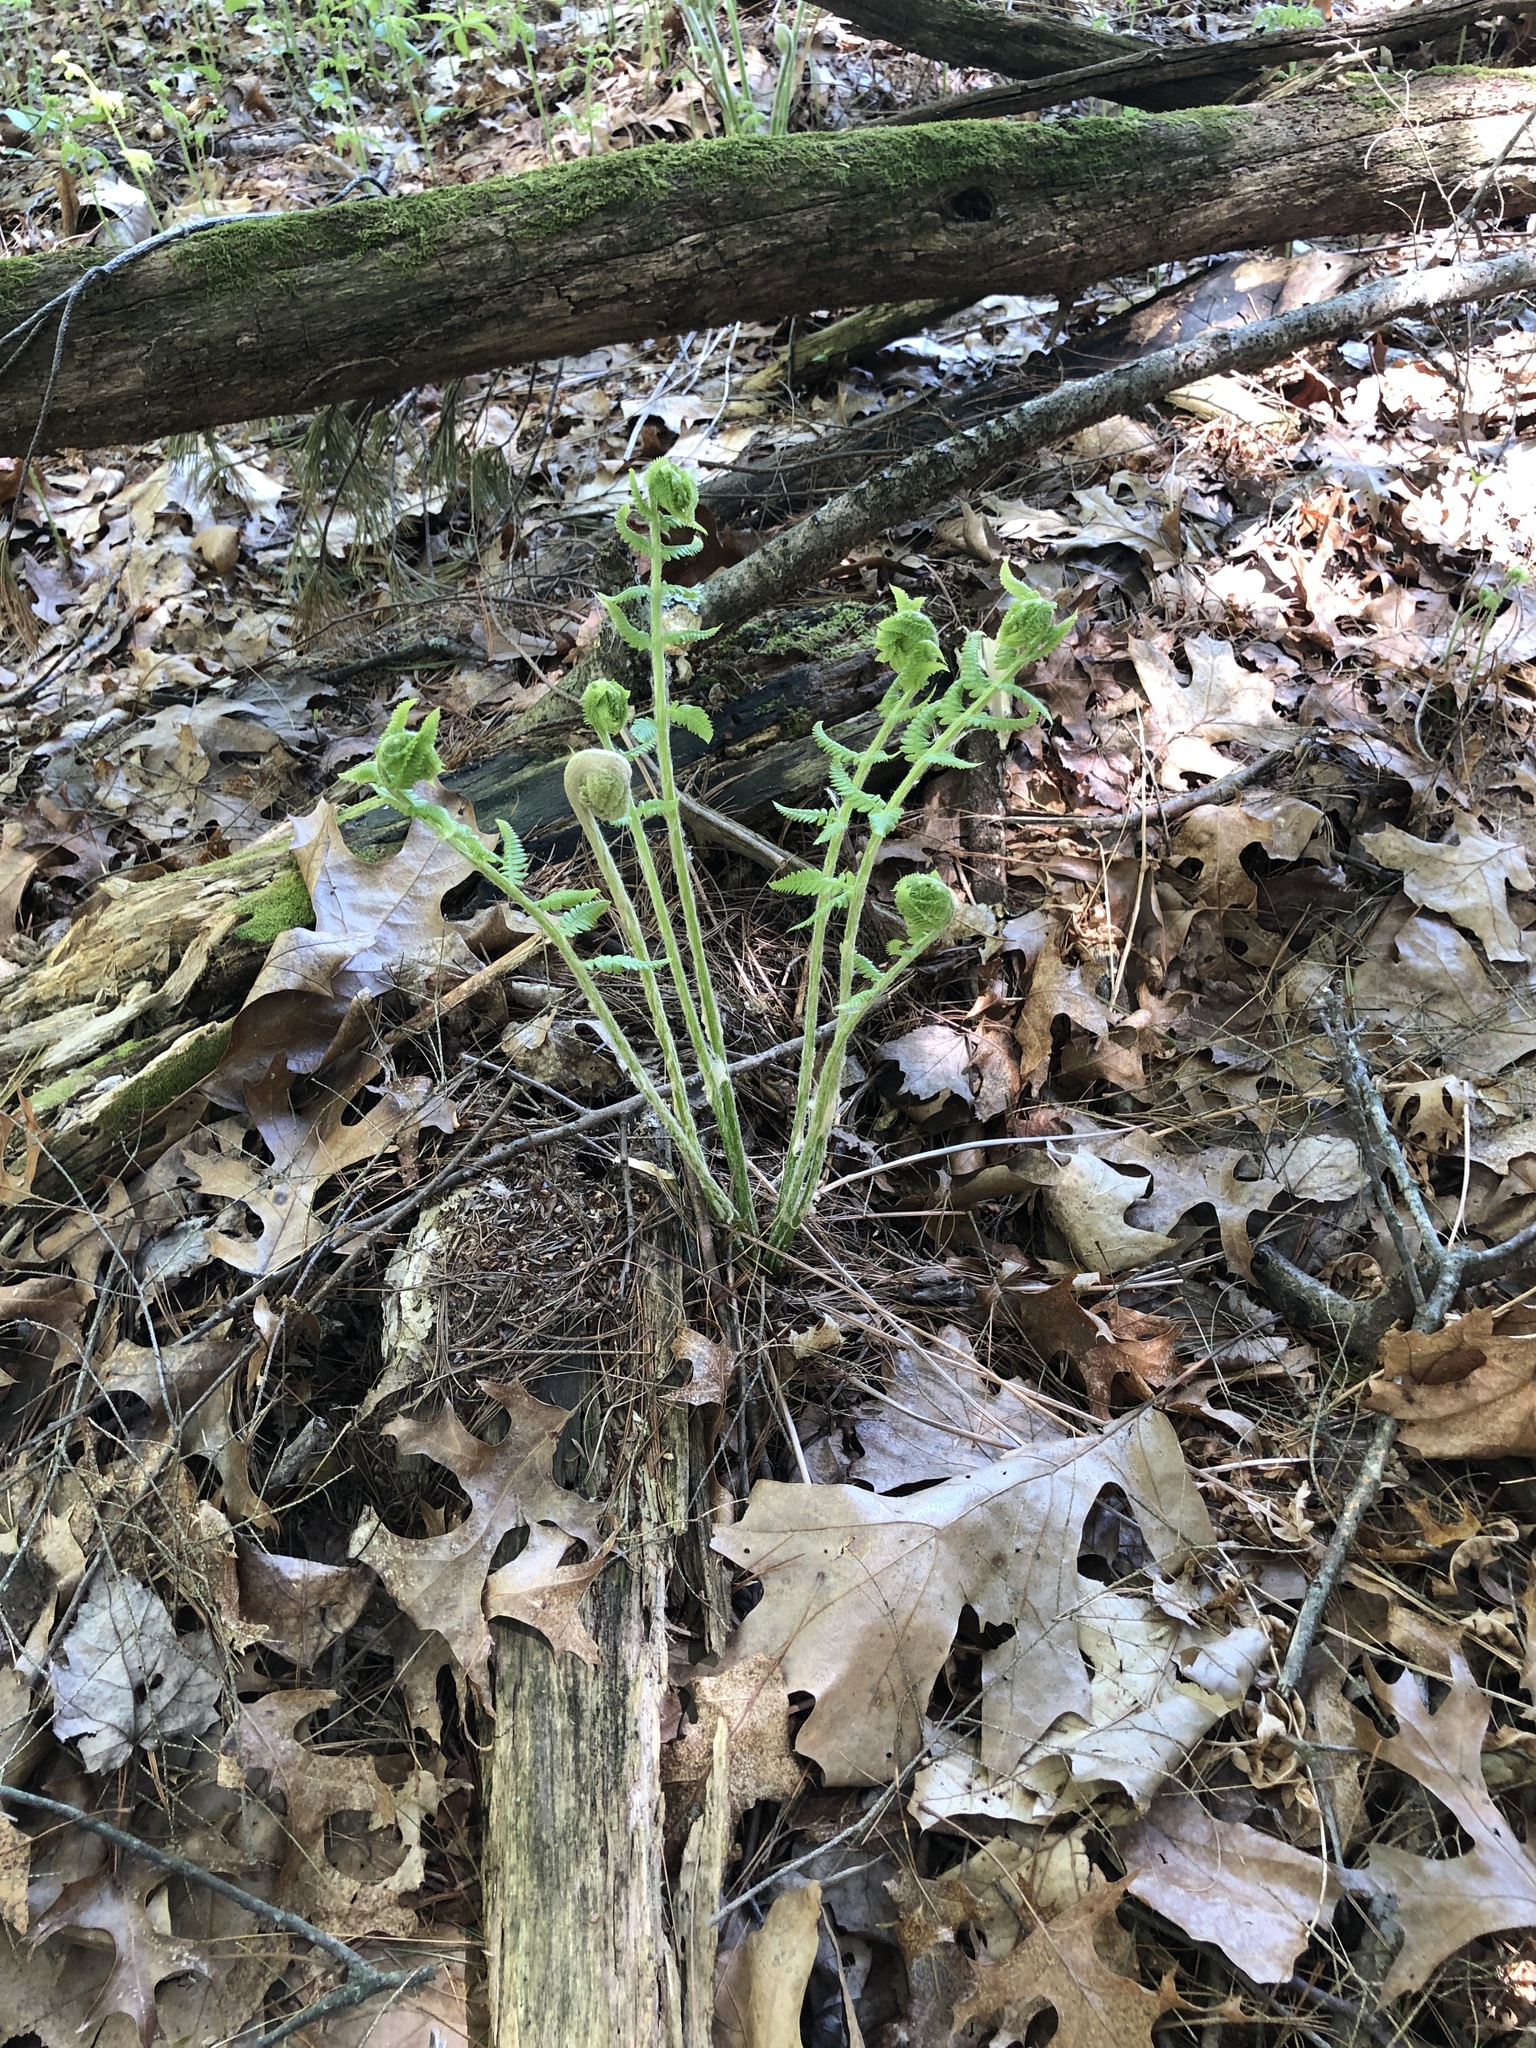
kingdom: Plantae
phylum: Tracheophyta
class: Polypodiopsida
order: Osmundales
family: Osmundaceae
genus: Osmundastrum
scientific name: Osmundastrum cinnamomeum
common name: Cinnamon fern
